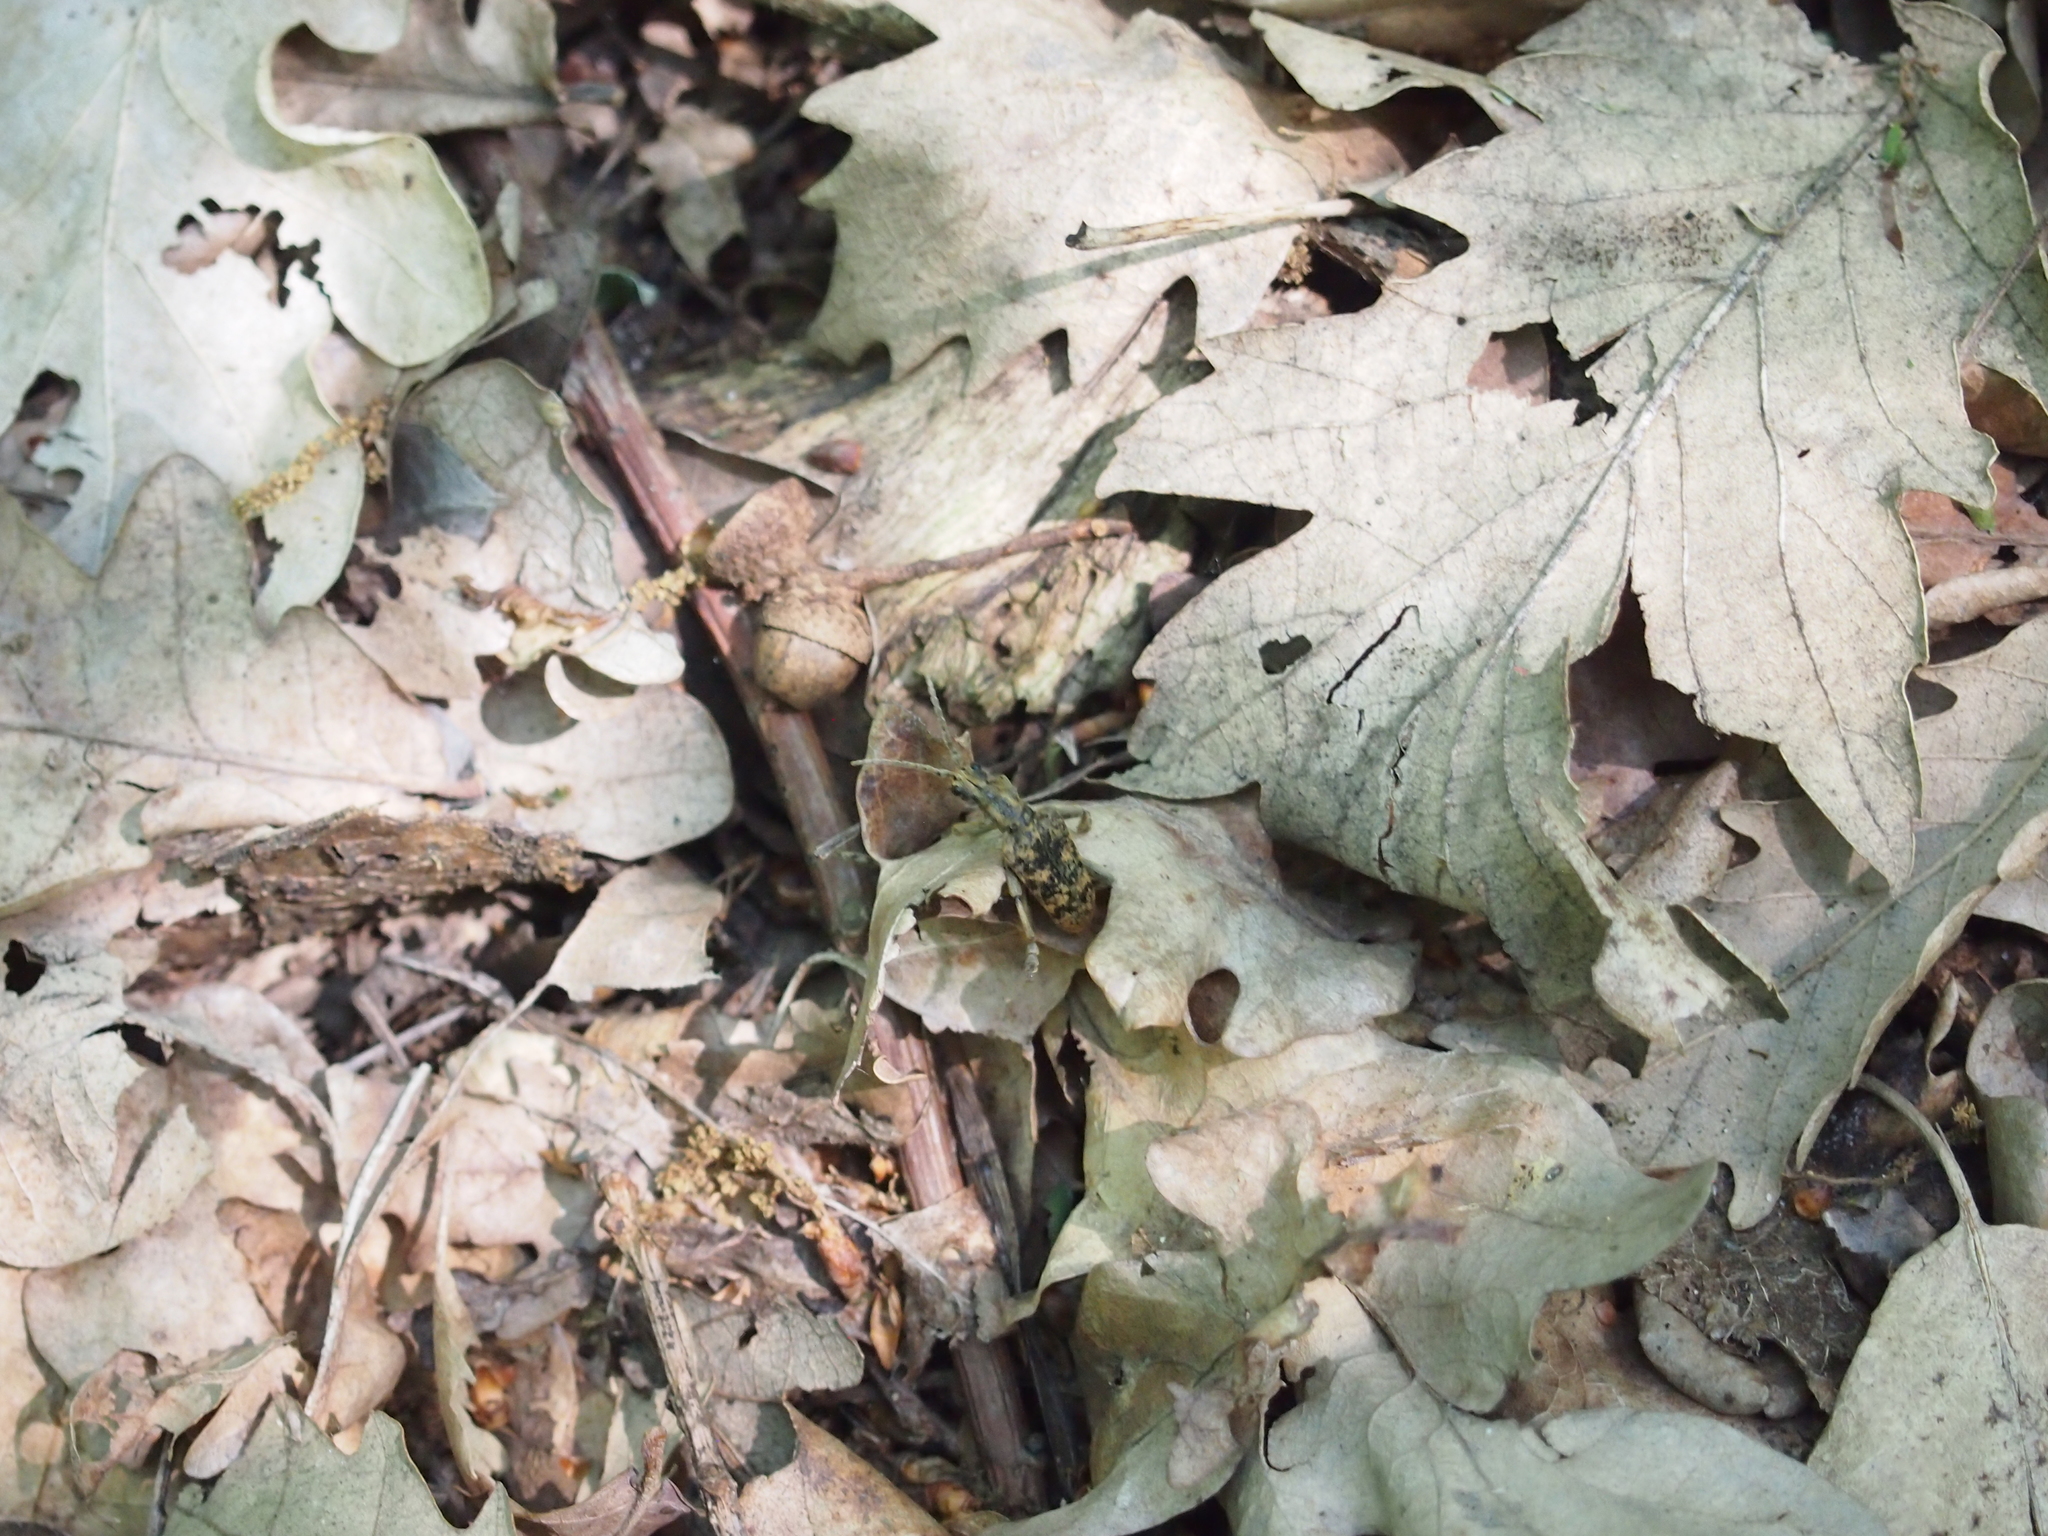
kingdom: Animalia
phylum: Arthropoda
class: Insecta
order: Coleoptera
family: Cerambycidae
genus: Rhagium
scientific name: Rhagium sycophanta
